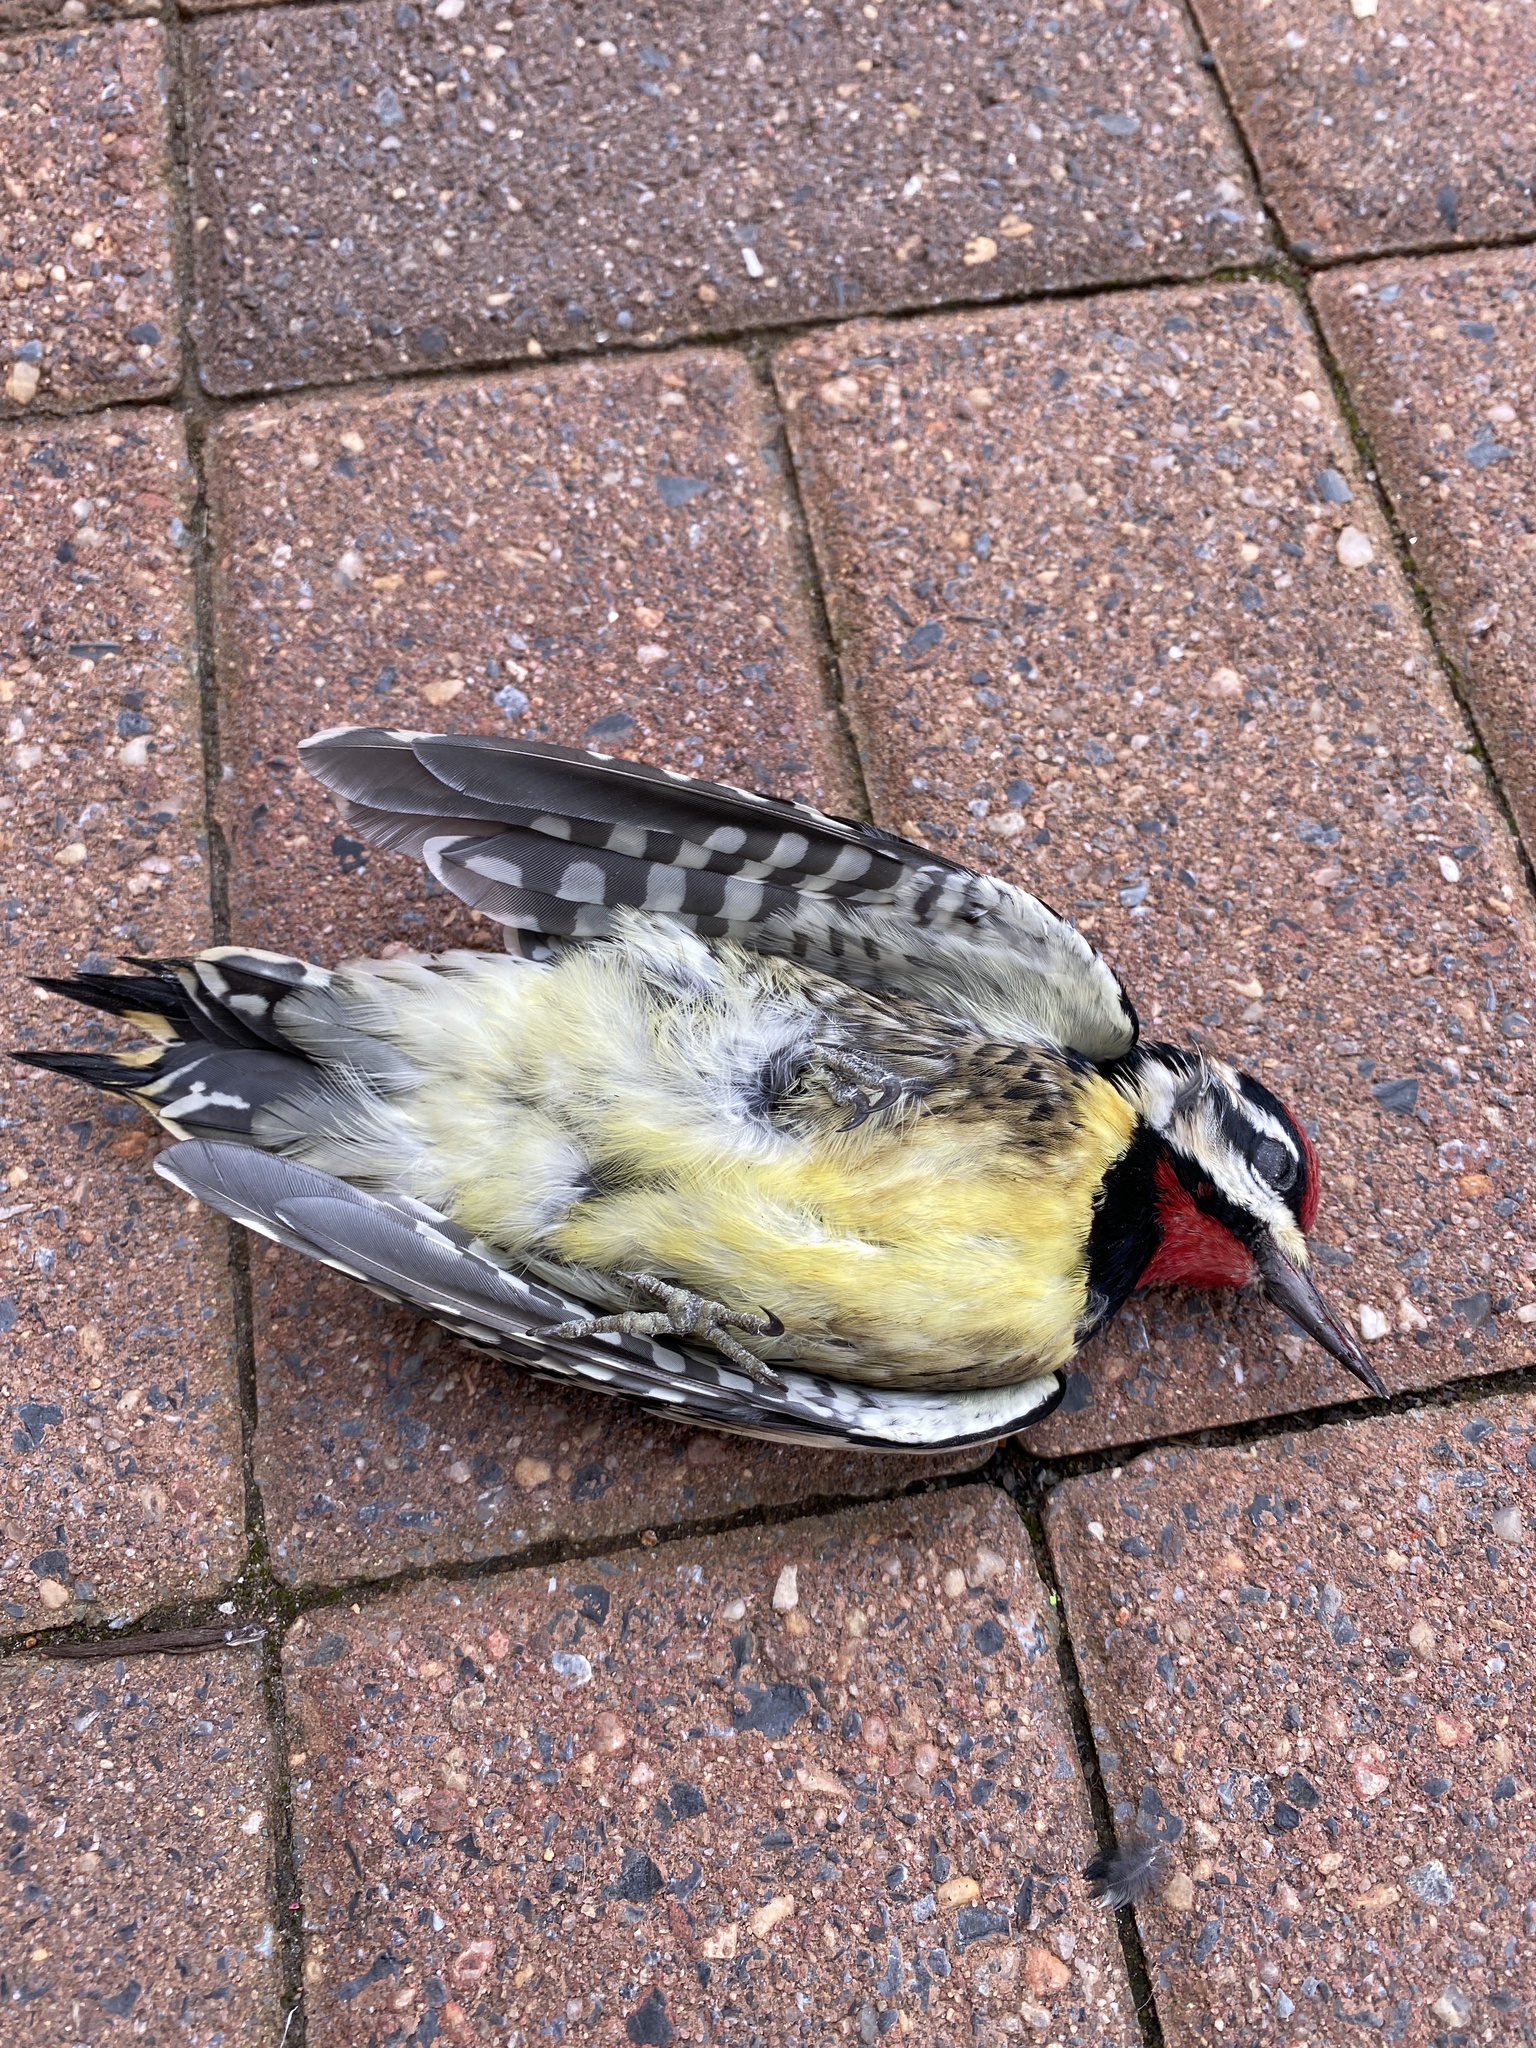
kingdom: Animalia
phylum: Chordata
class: Aves
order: Piciformes
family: Picidae
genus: Sphyrapicus
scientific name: Sphyrapicus varius
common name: Yellow-bellied sapsucker
